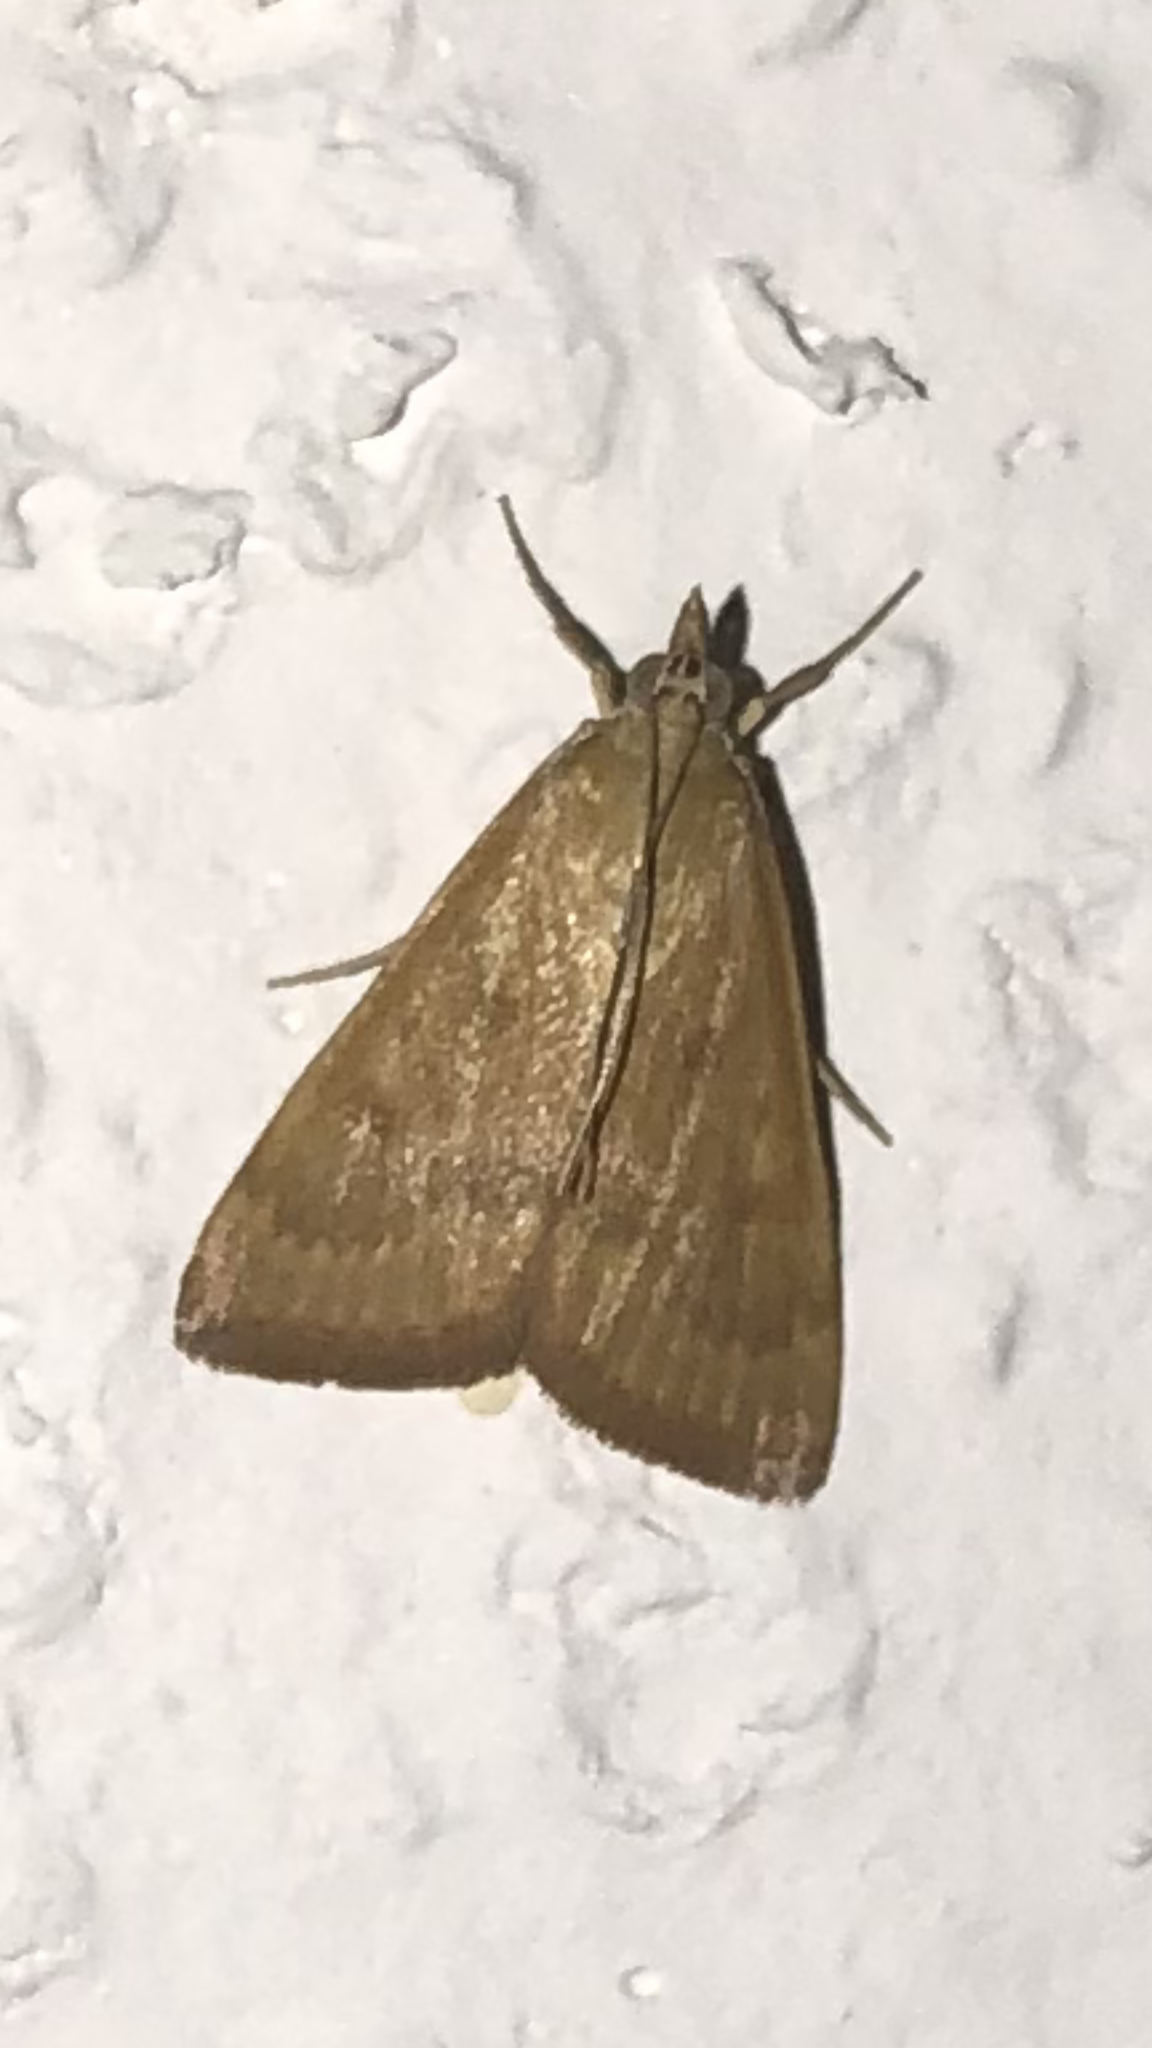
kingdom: Animalia
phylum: Arthropoda
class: Insecta
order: Lepidoptera
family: Crambidae
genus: Achyra
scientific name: Achyra rantalis
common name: Garden webworm
